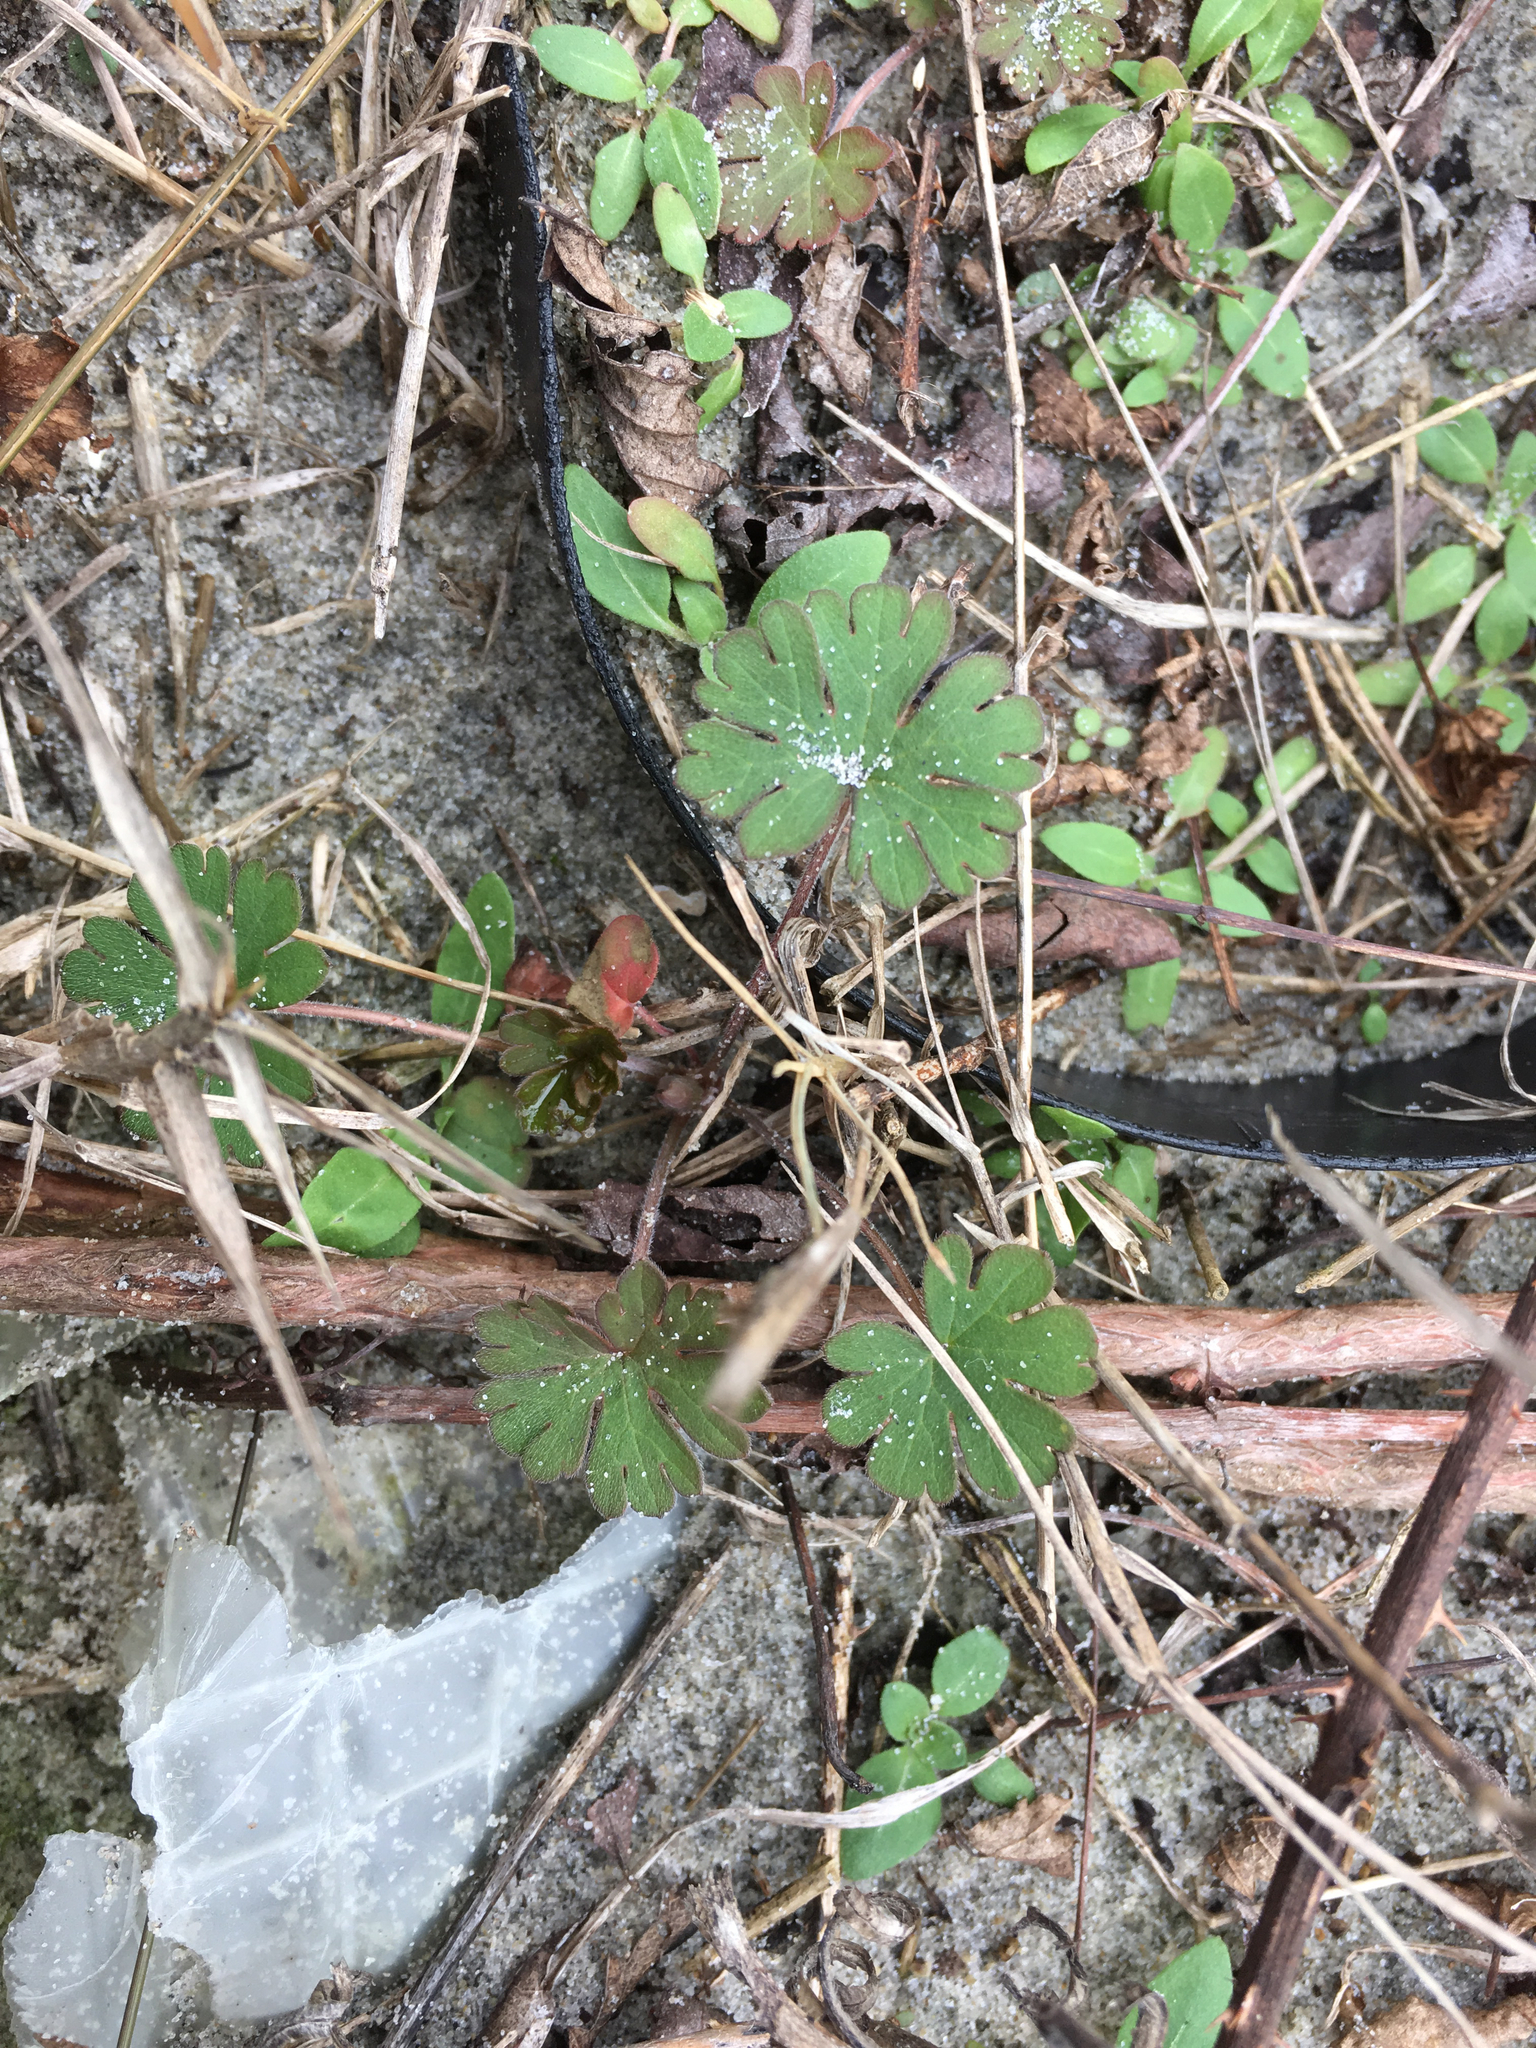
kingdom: Plantae
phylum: Tracheophyta
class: Magnoliopsida
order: Geraniales
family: Geraniaceae
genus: Geranium
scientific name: Geranium carolinianum
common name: Carolina crane's-bill
